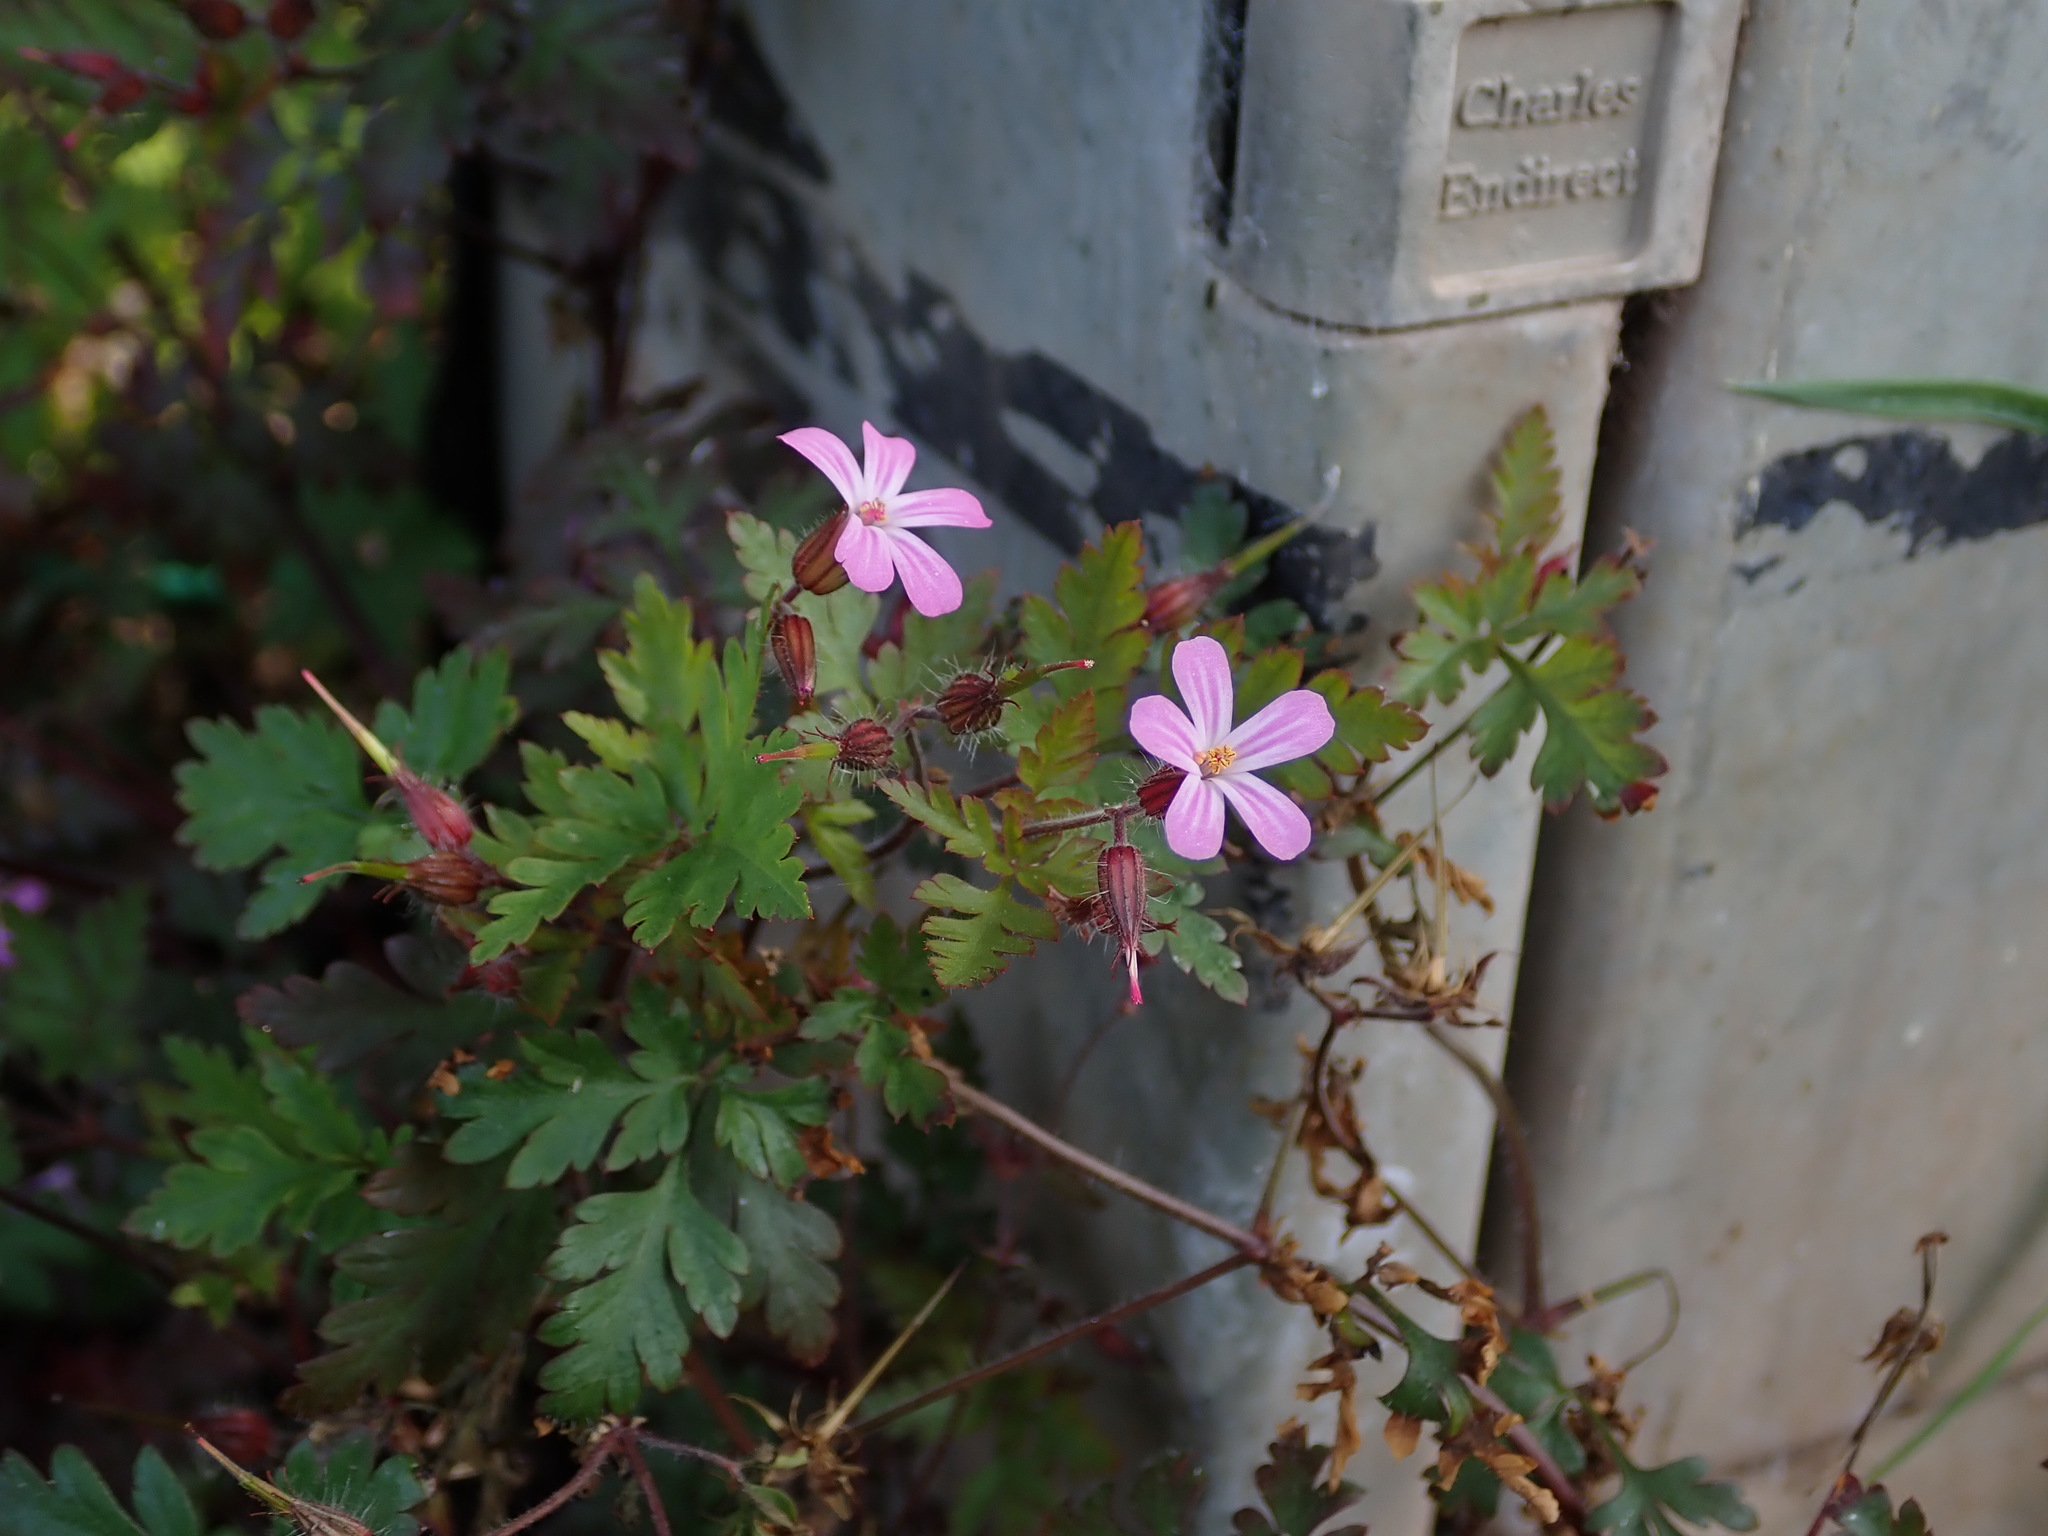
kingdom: Plantae
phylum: Tracheophyta
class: Magnoliopsida
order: Geraniales
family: Geraniaceae
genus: Geranium
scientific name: Geranium robertianum
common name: Herb-robert
